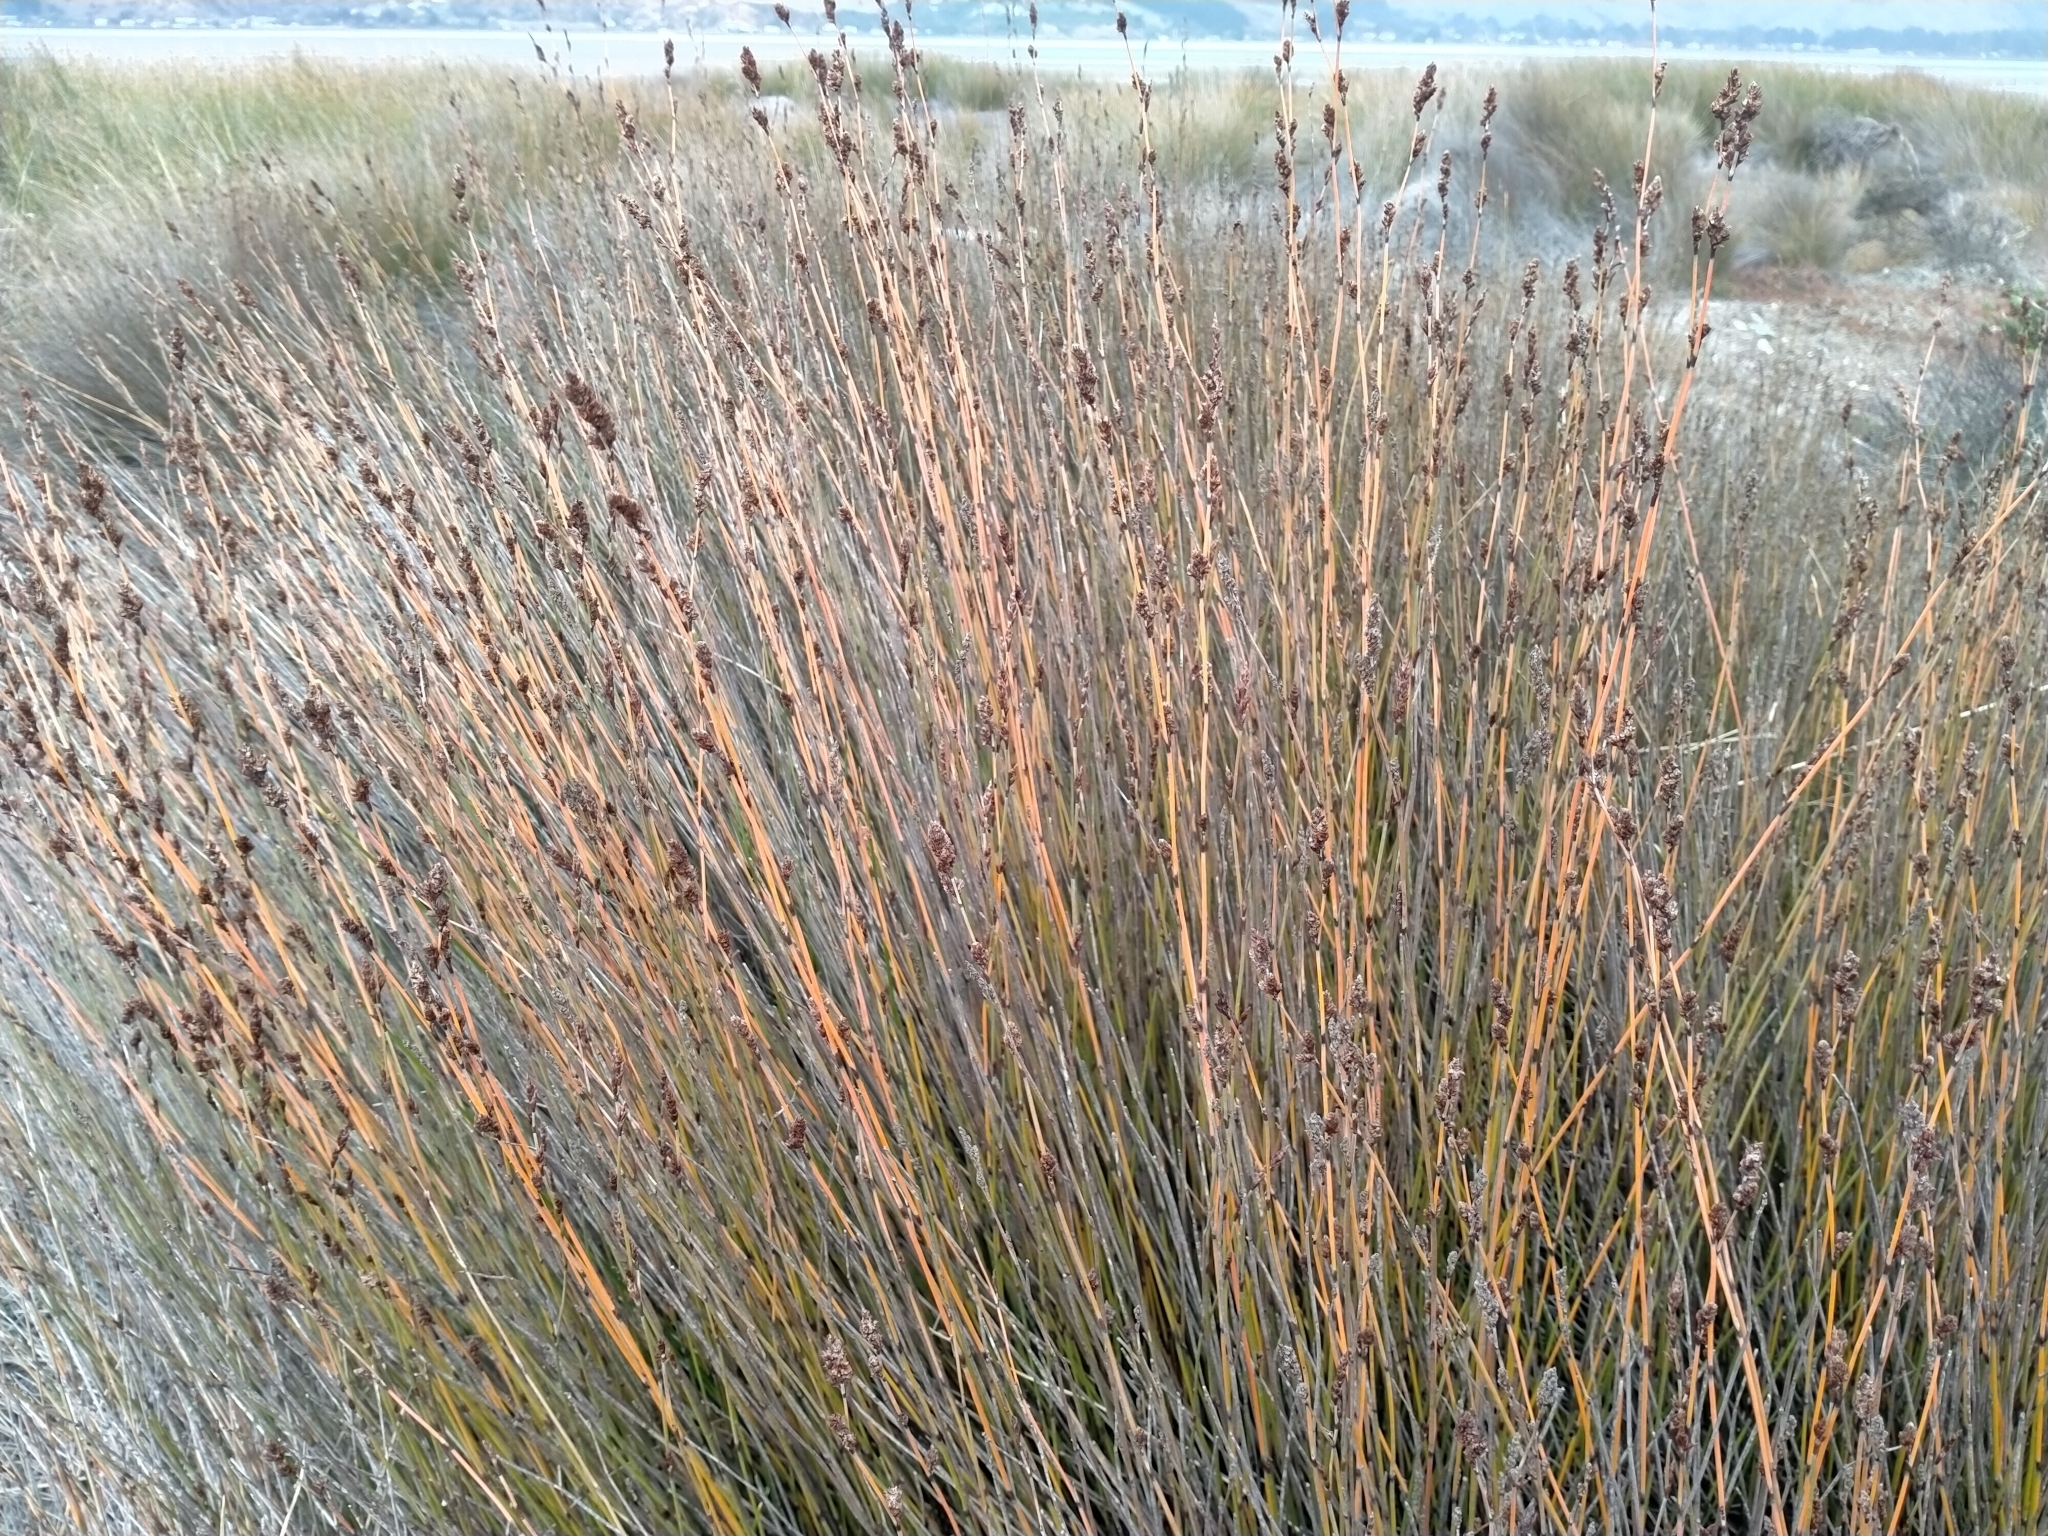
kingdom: Plantae
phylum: Tracheophyta
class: Liliopsida
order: Poales
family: Restionaceae
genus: Apodasmia
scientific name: Apodasmia similis
